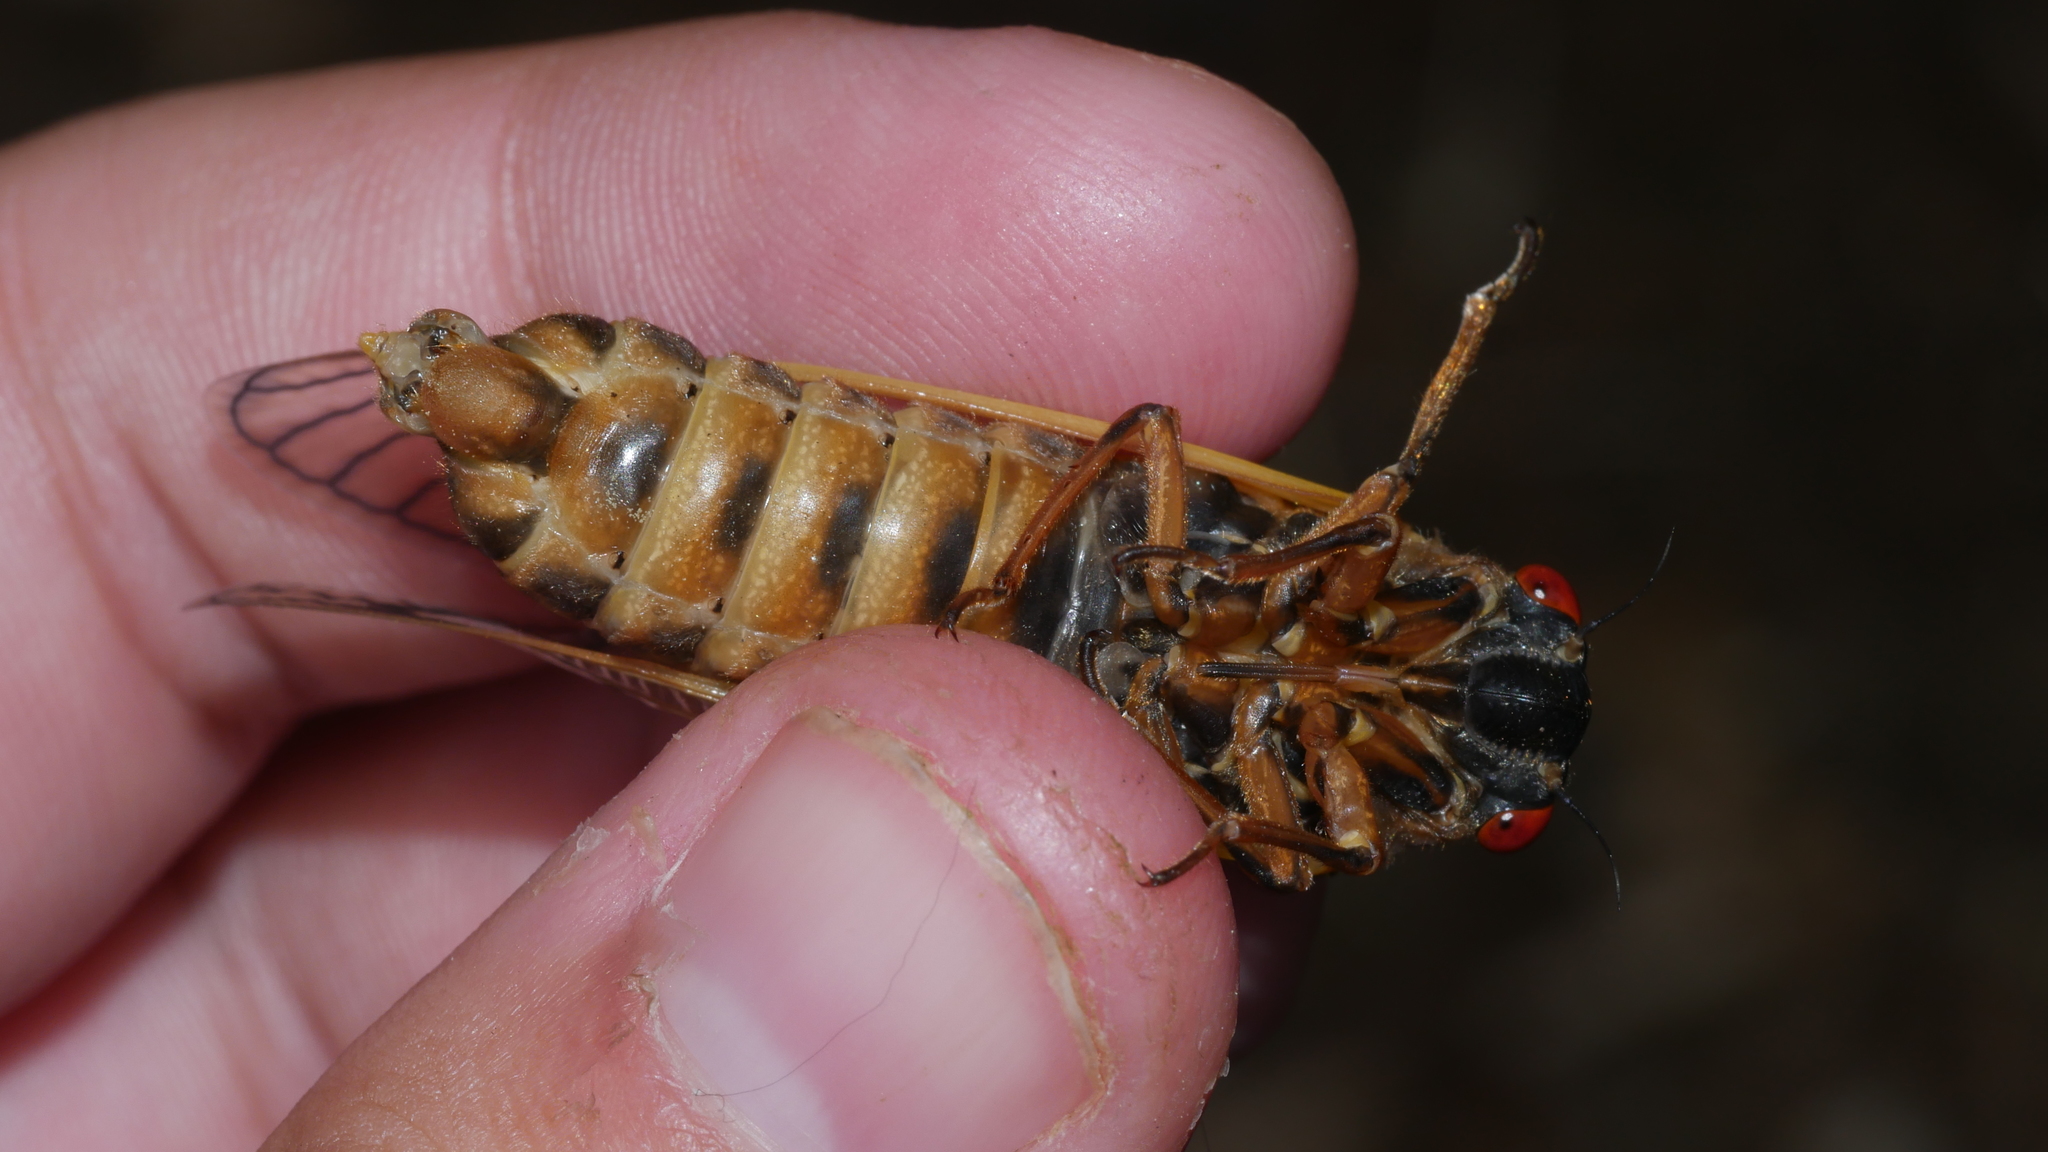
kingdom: Animalia
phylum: Arthropoda
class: Insecta
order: Hemiptera
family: Cicadidae
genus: Magicicada
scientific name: Magicicada septendecim
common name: Periodical cicada
